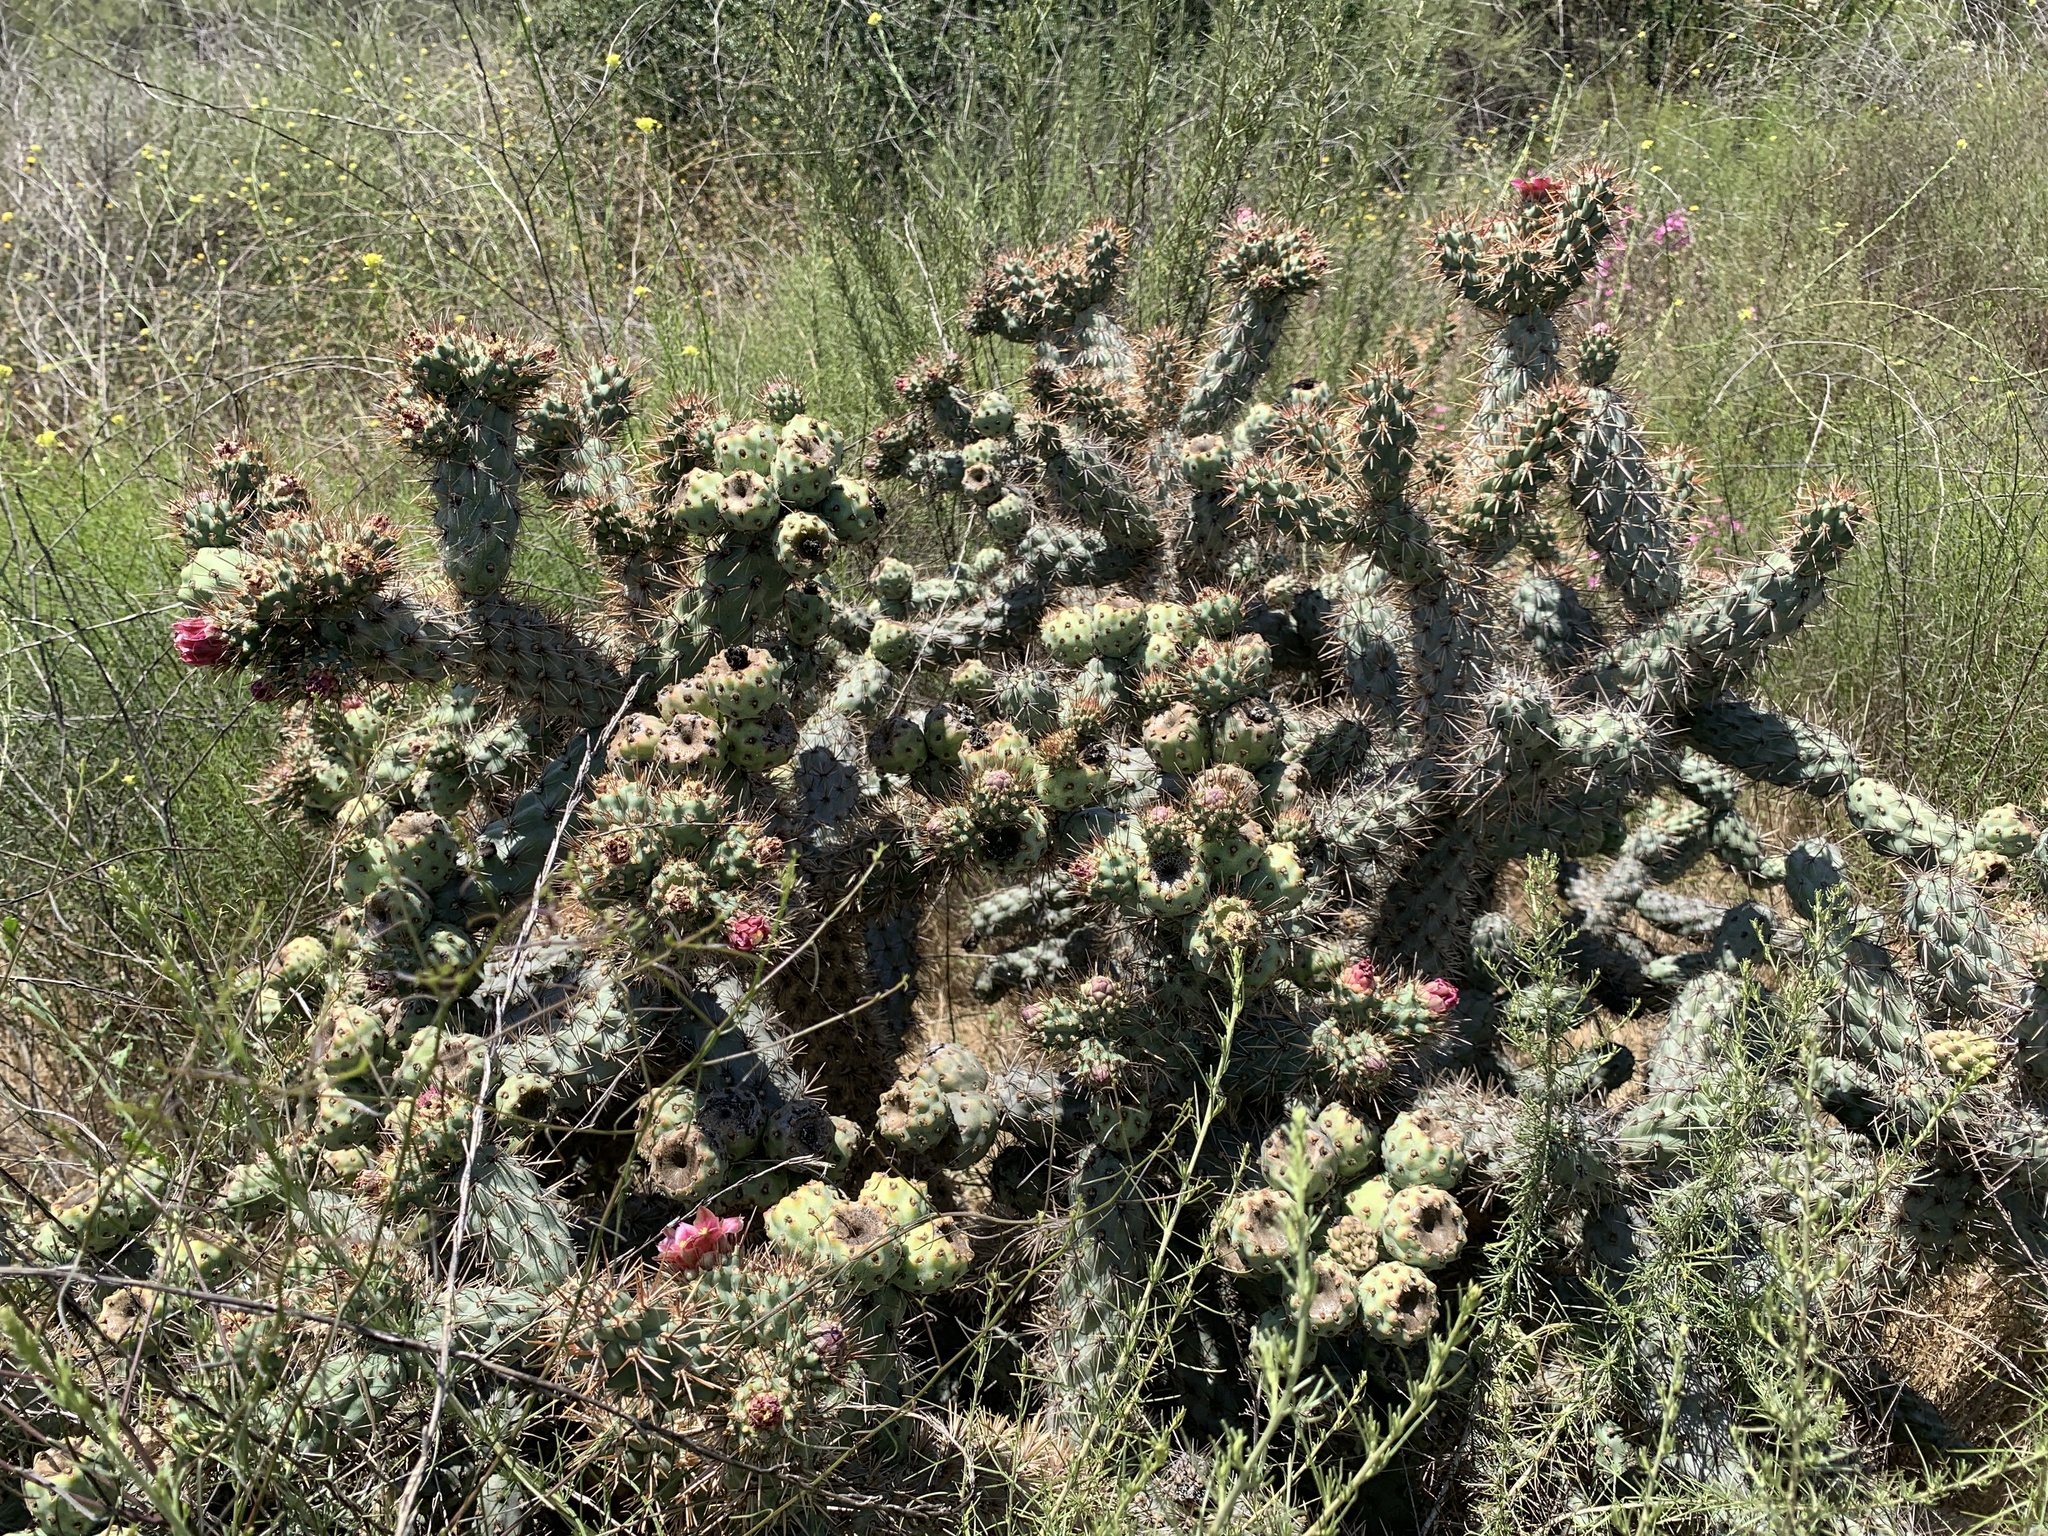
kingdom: Plantae
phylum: Tracheophyta
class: Magnoliopsida
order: Caryophyllales
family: Cactaceae
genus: Cylindropuntia
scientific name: Cylindropuntia prolifera
